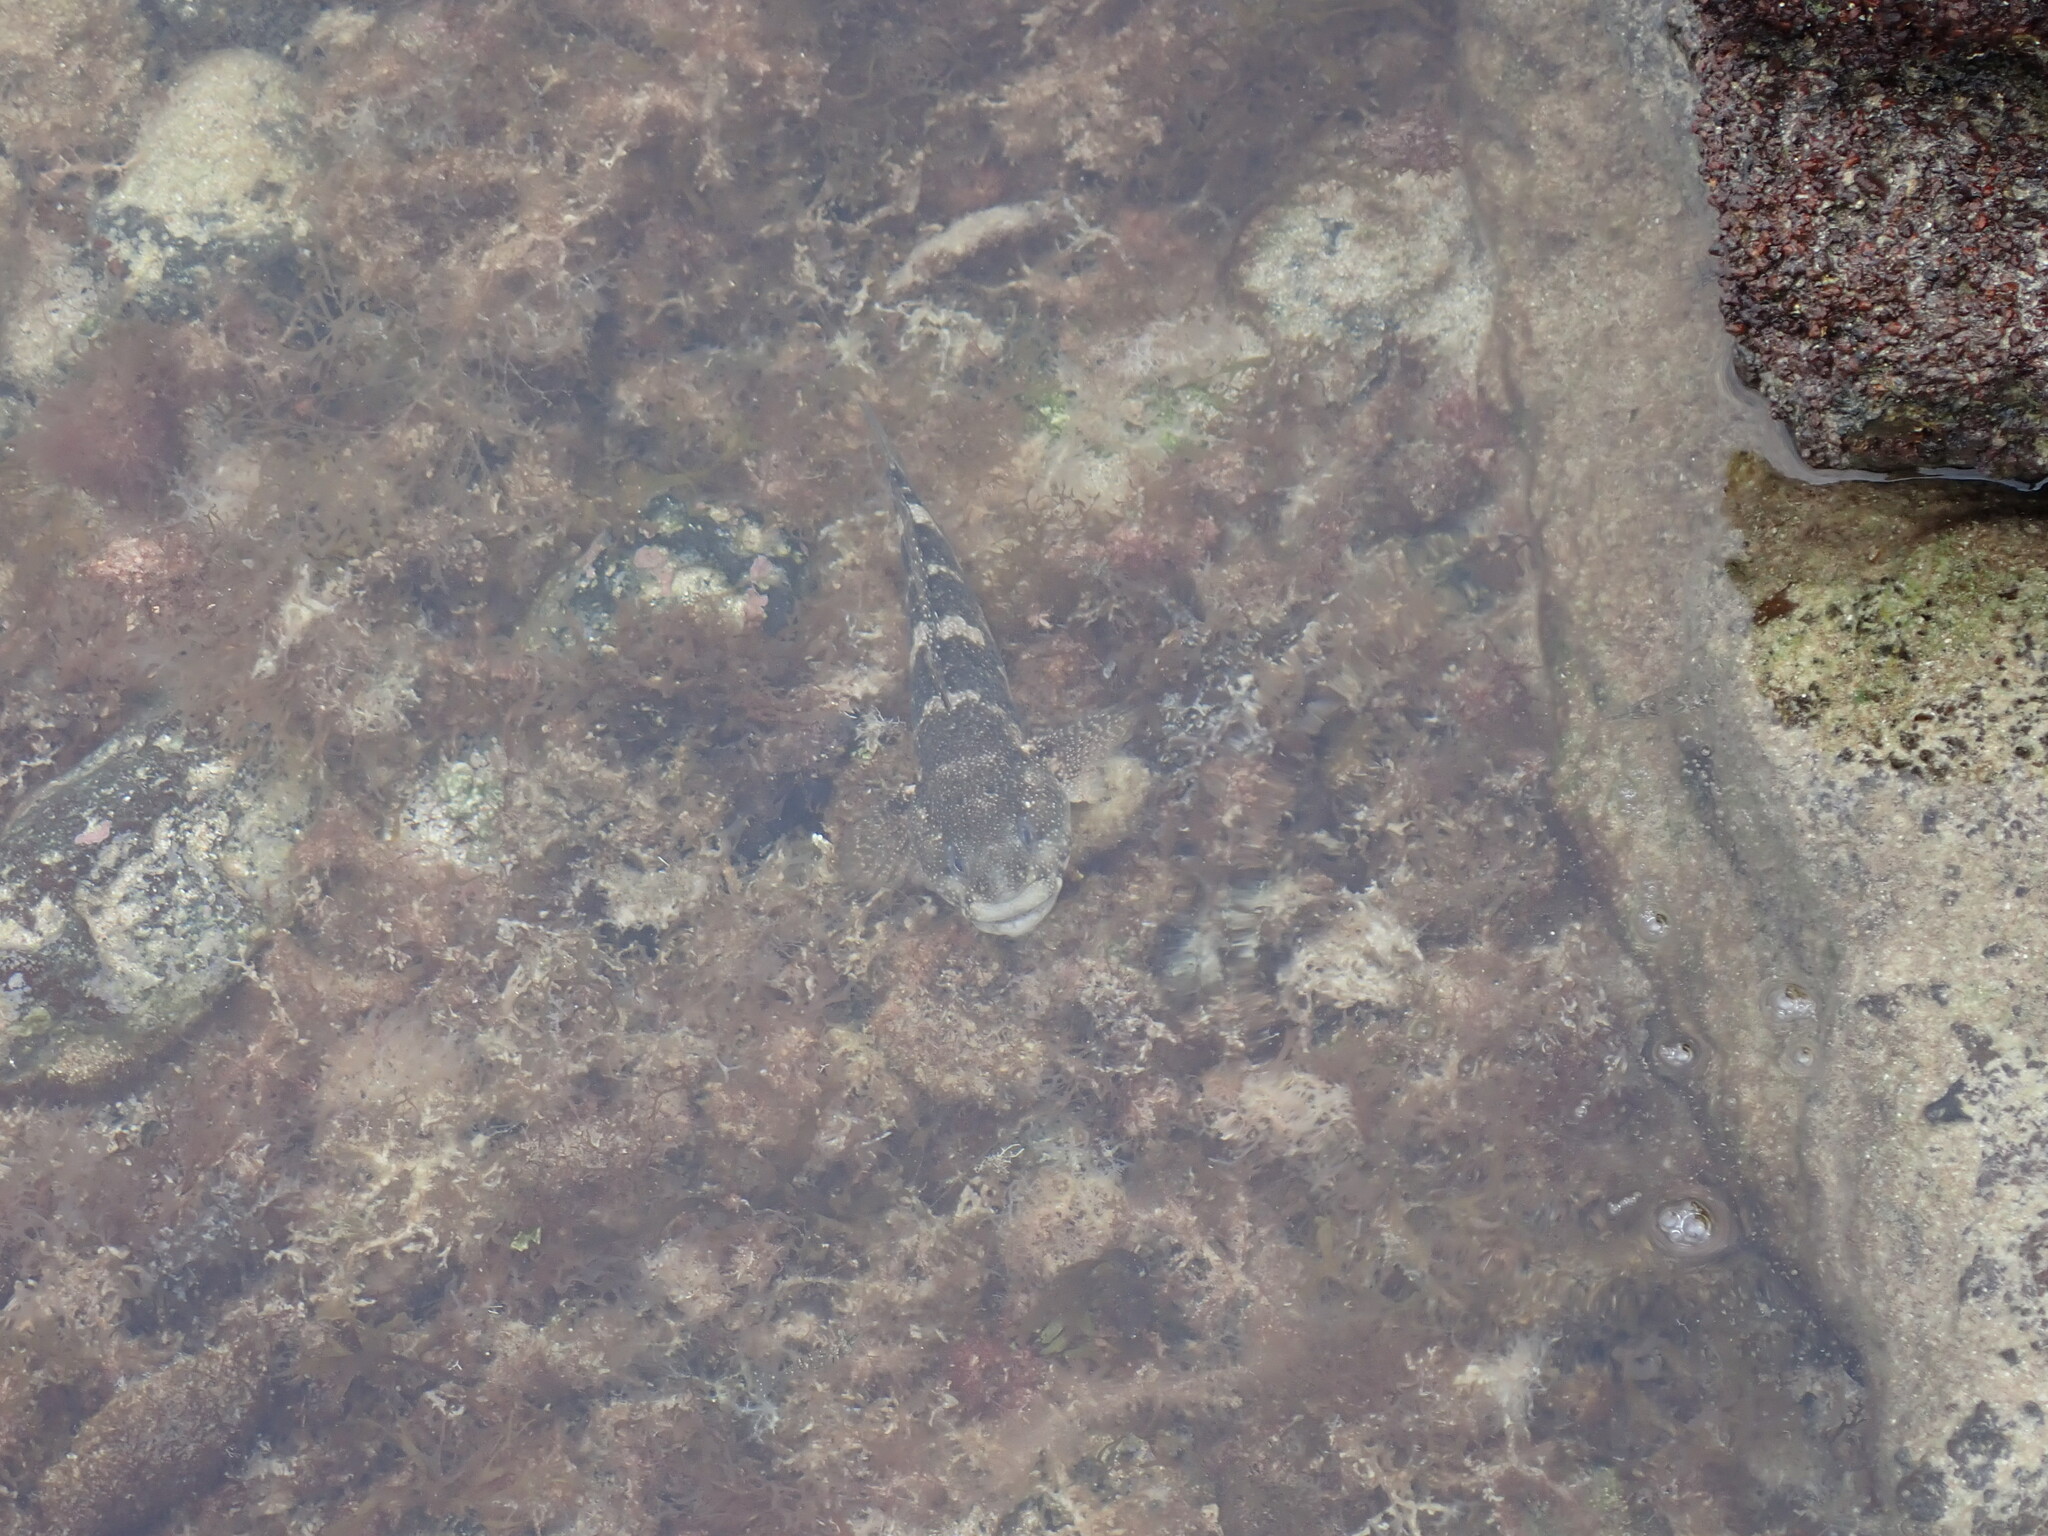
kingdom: Animalia
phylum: Chordata
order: Perciformes
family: Gobiidae
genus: Mauligobius
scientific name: Mauligobius maderensis
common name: Rock goby
